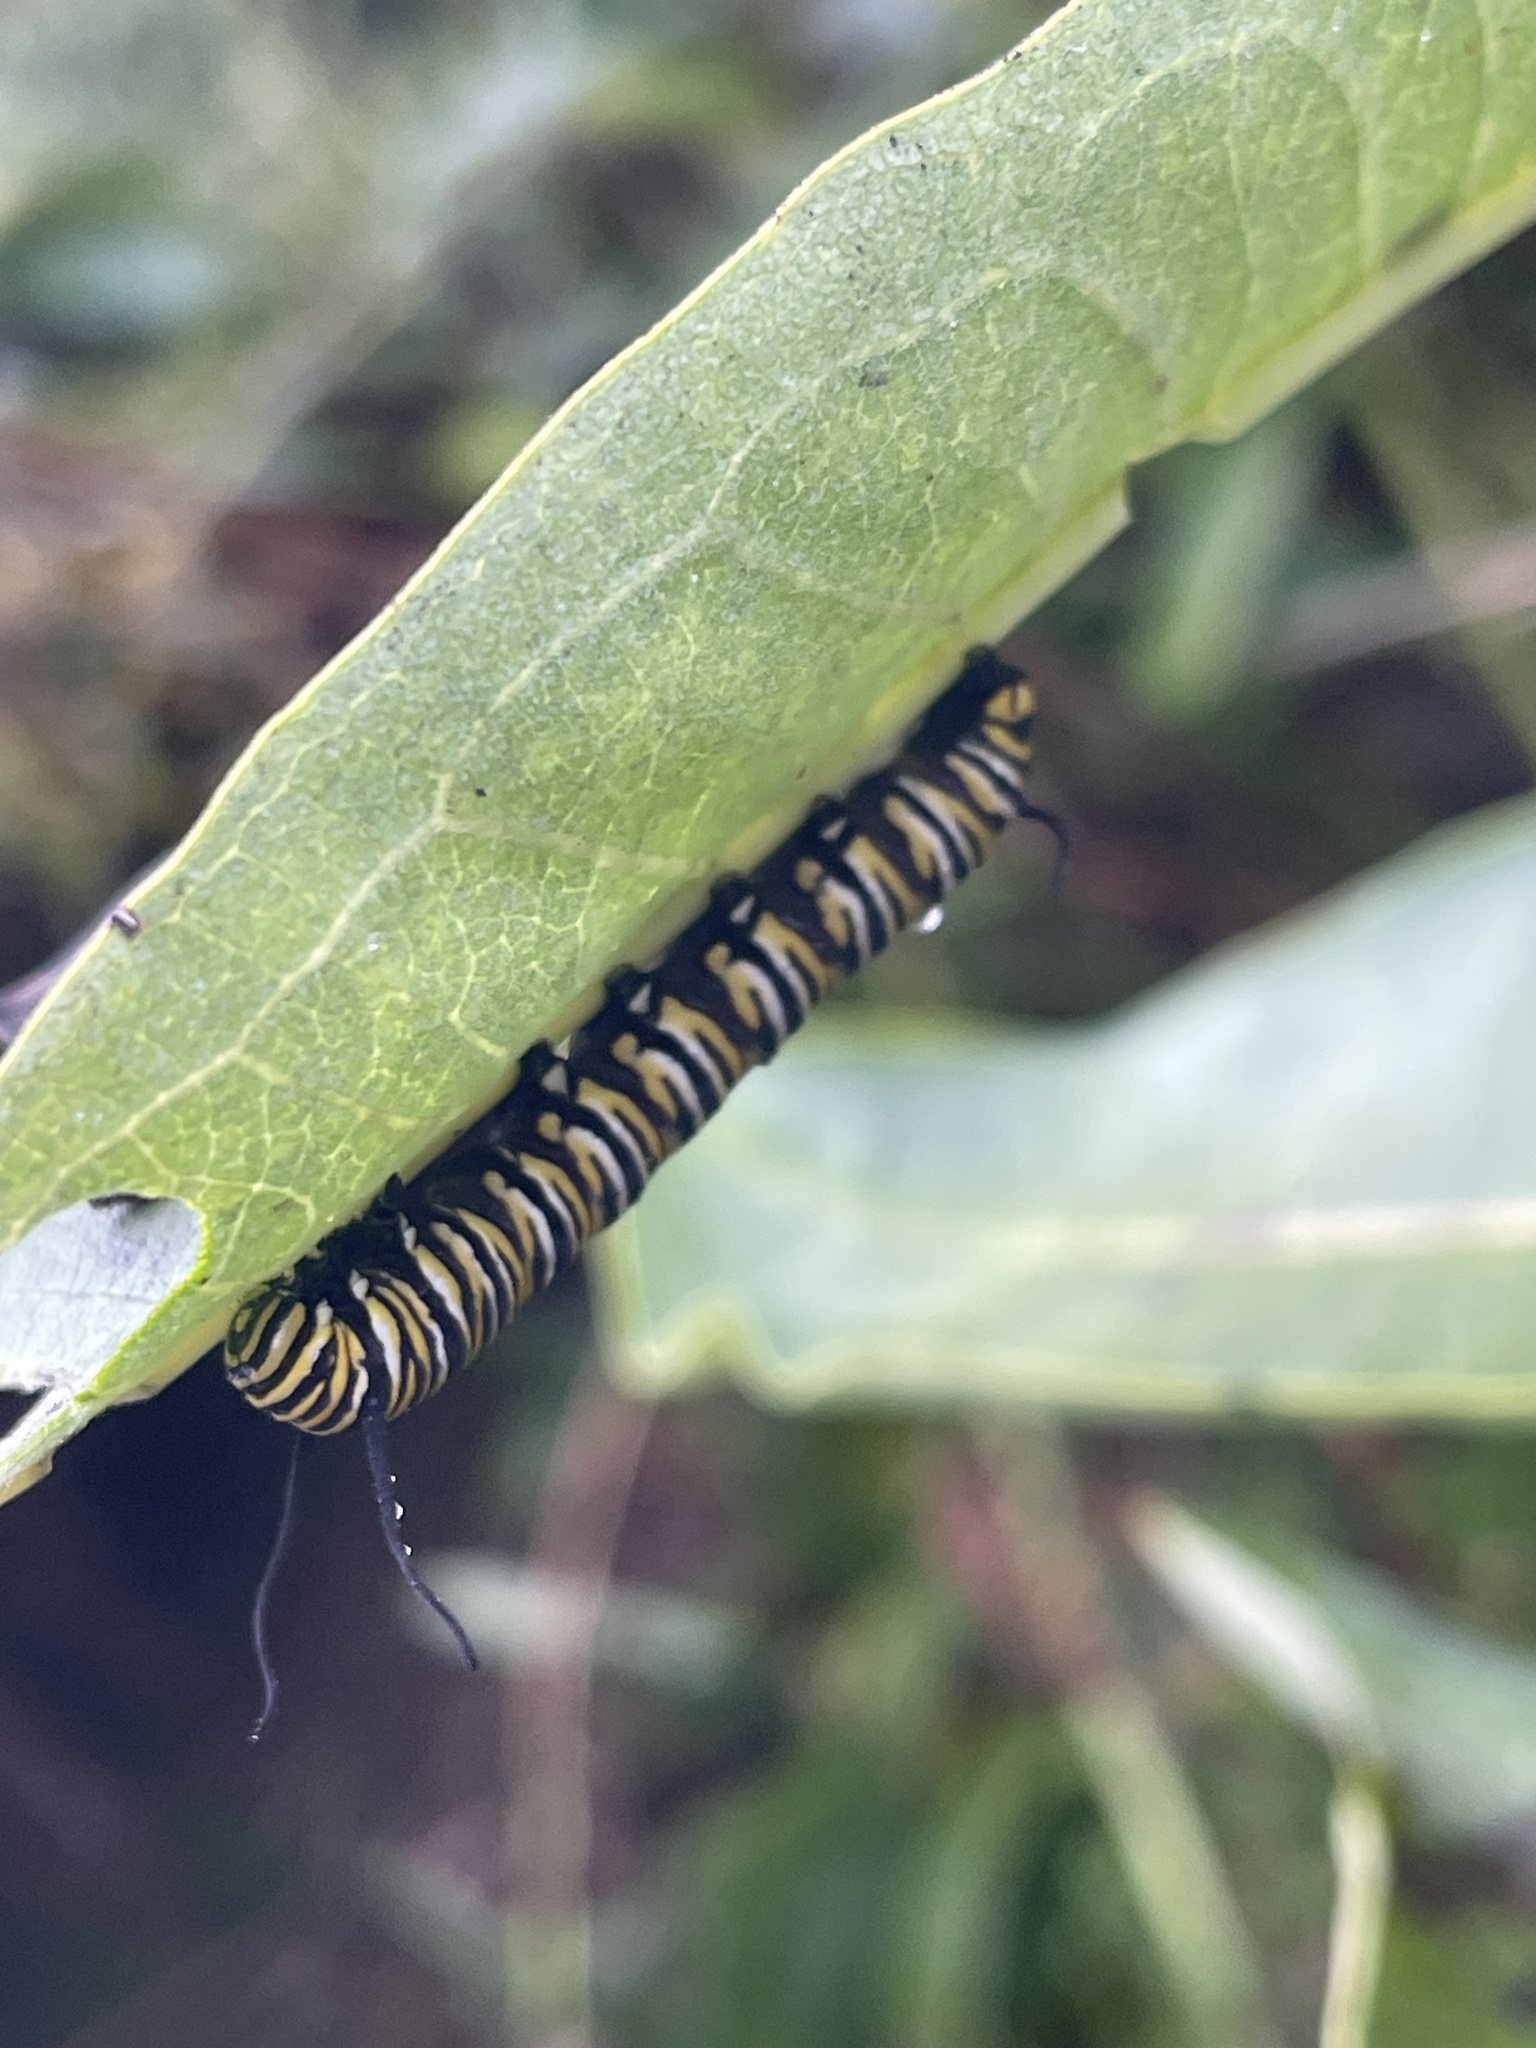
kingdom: Animalia
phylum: Arthropoda
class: Insecta
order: Lepidoptera
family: Nymphalidae
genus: Danaus
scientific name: Danaus plexippus
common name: Monarch
